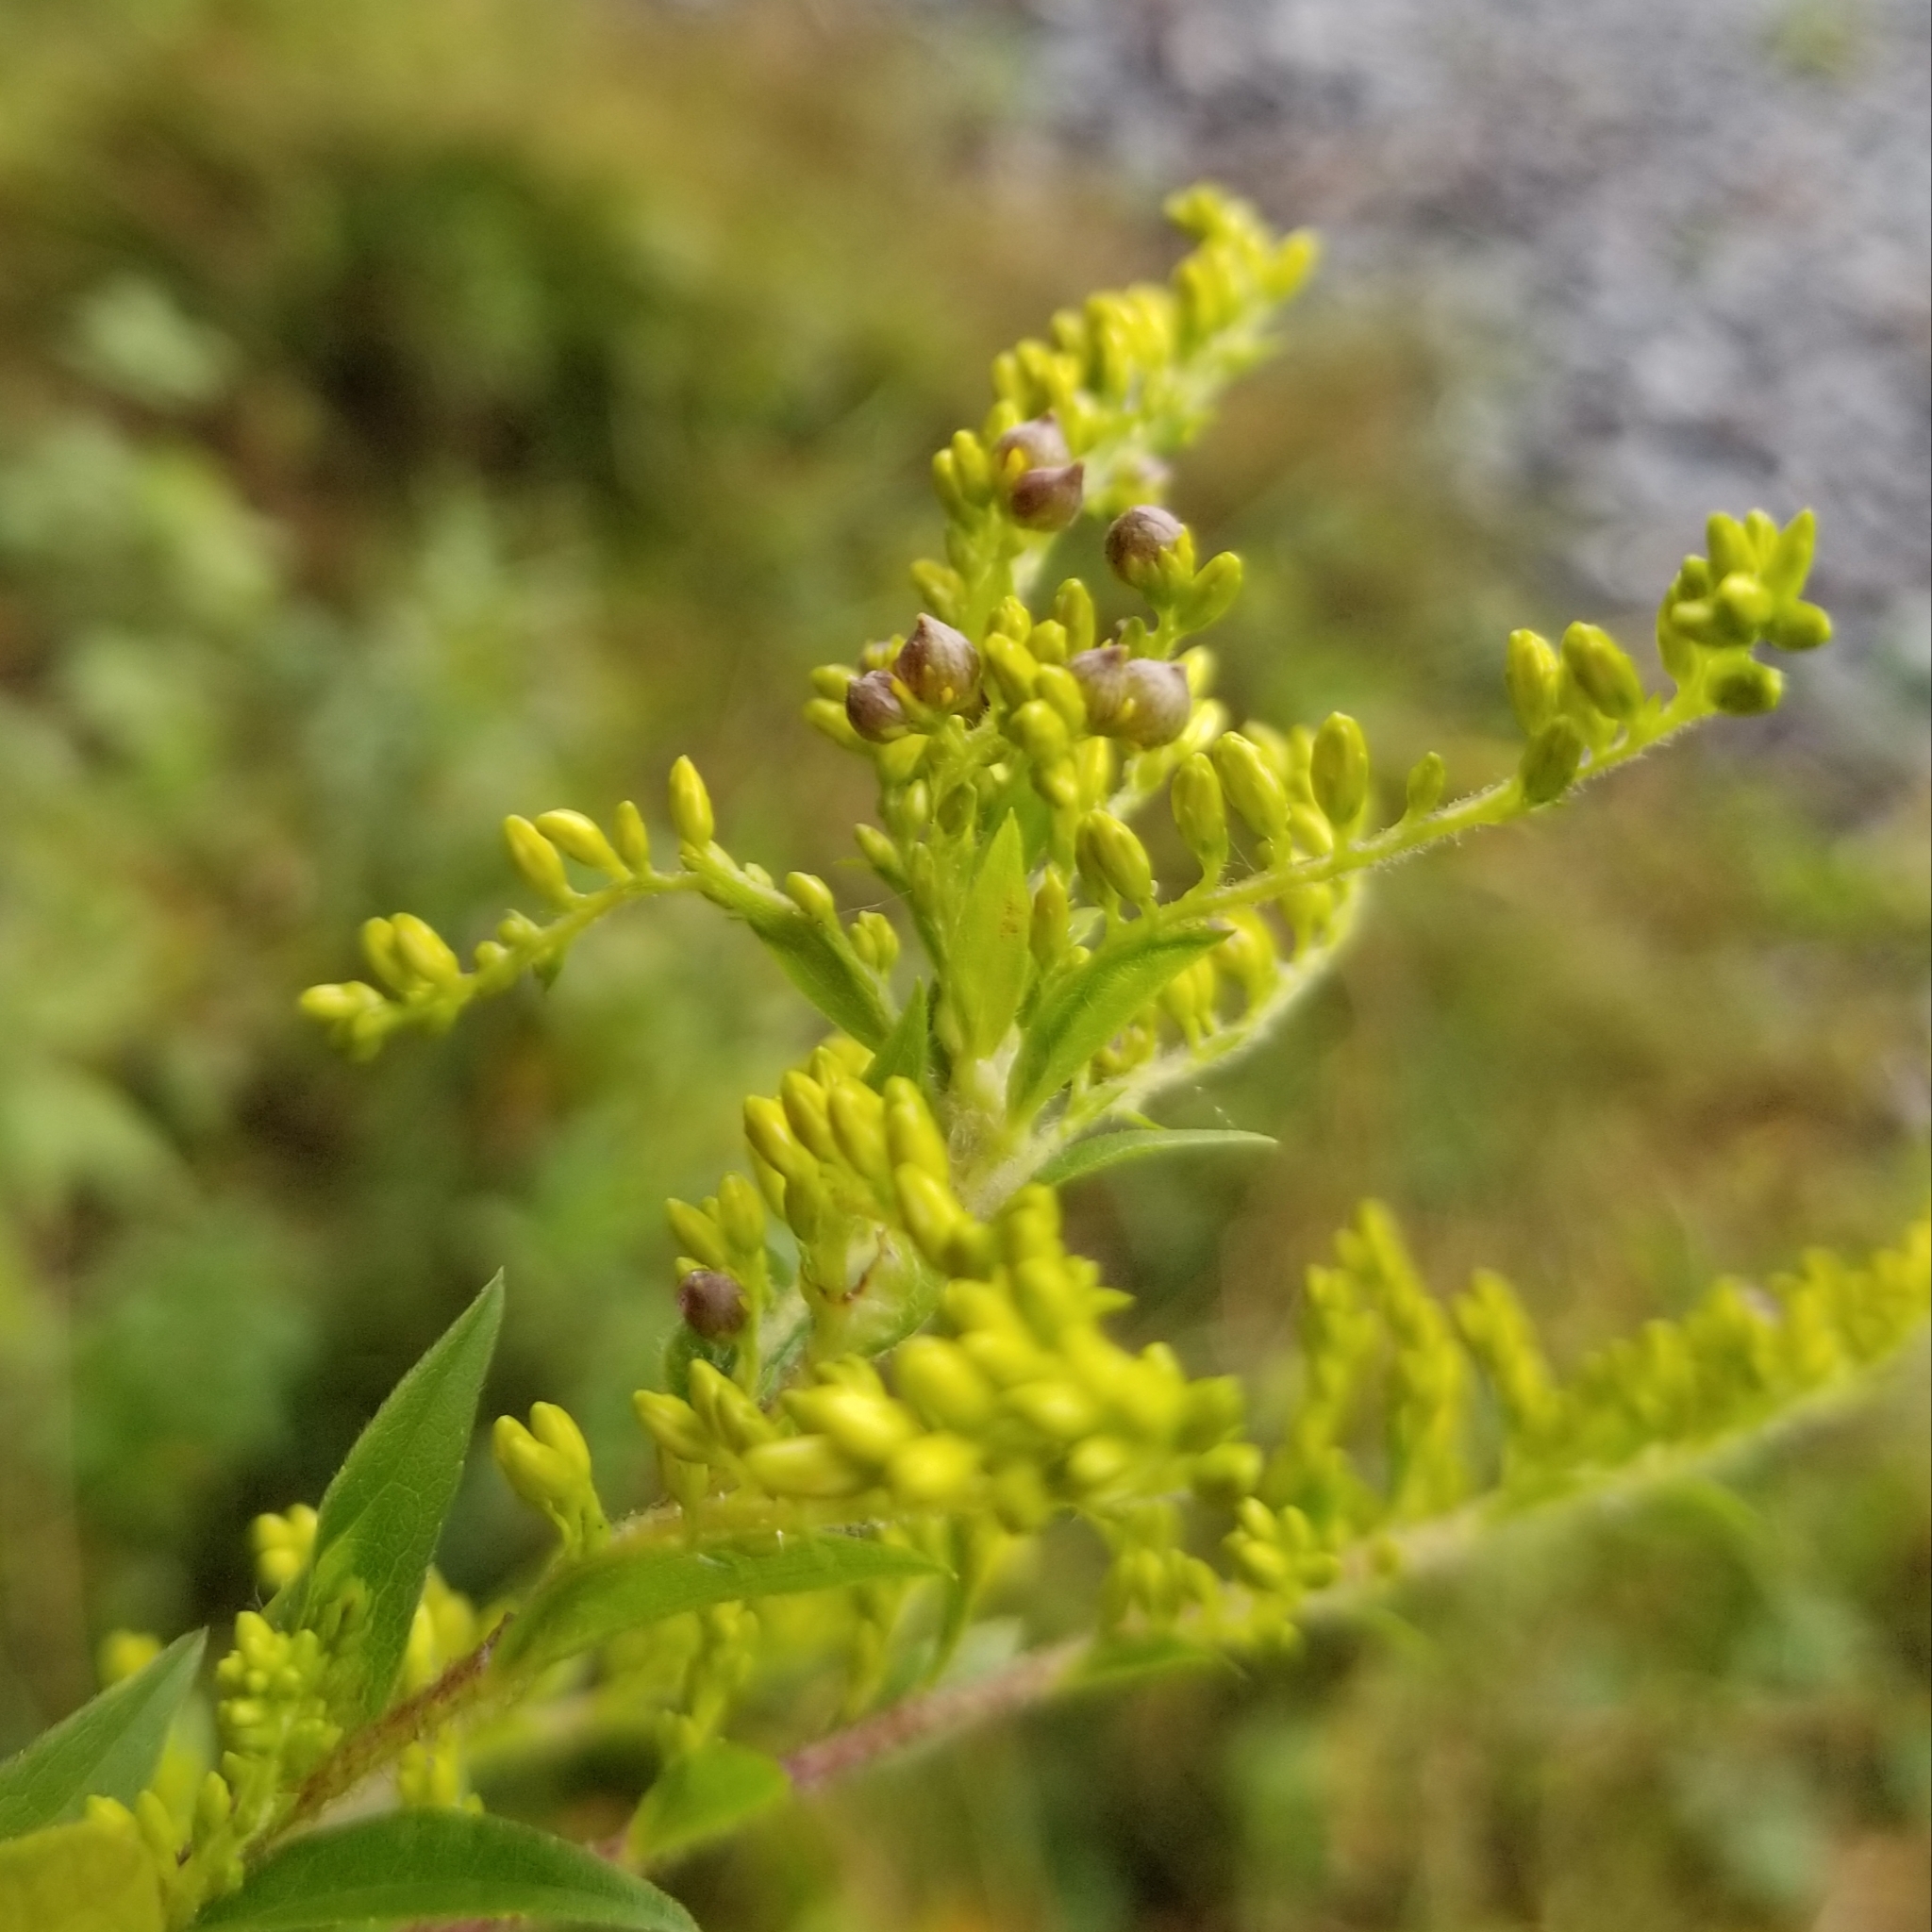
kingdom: Plantae
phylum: Tracheophyta
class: Magnoliopsida
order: Asterales
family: Asteraceae
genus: Solidago
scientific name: Solidago rugosa
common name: Rough-stemmed goldenrod
